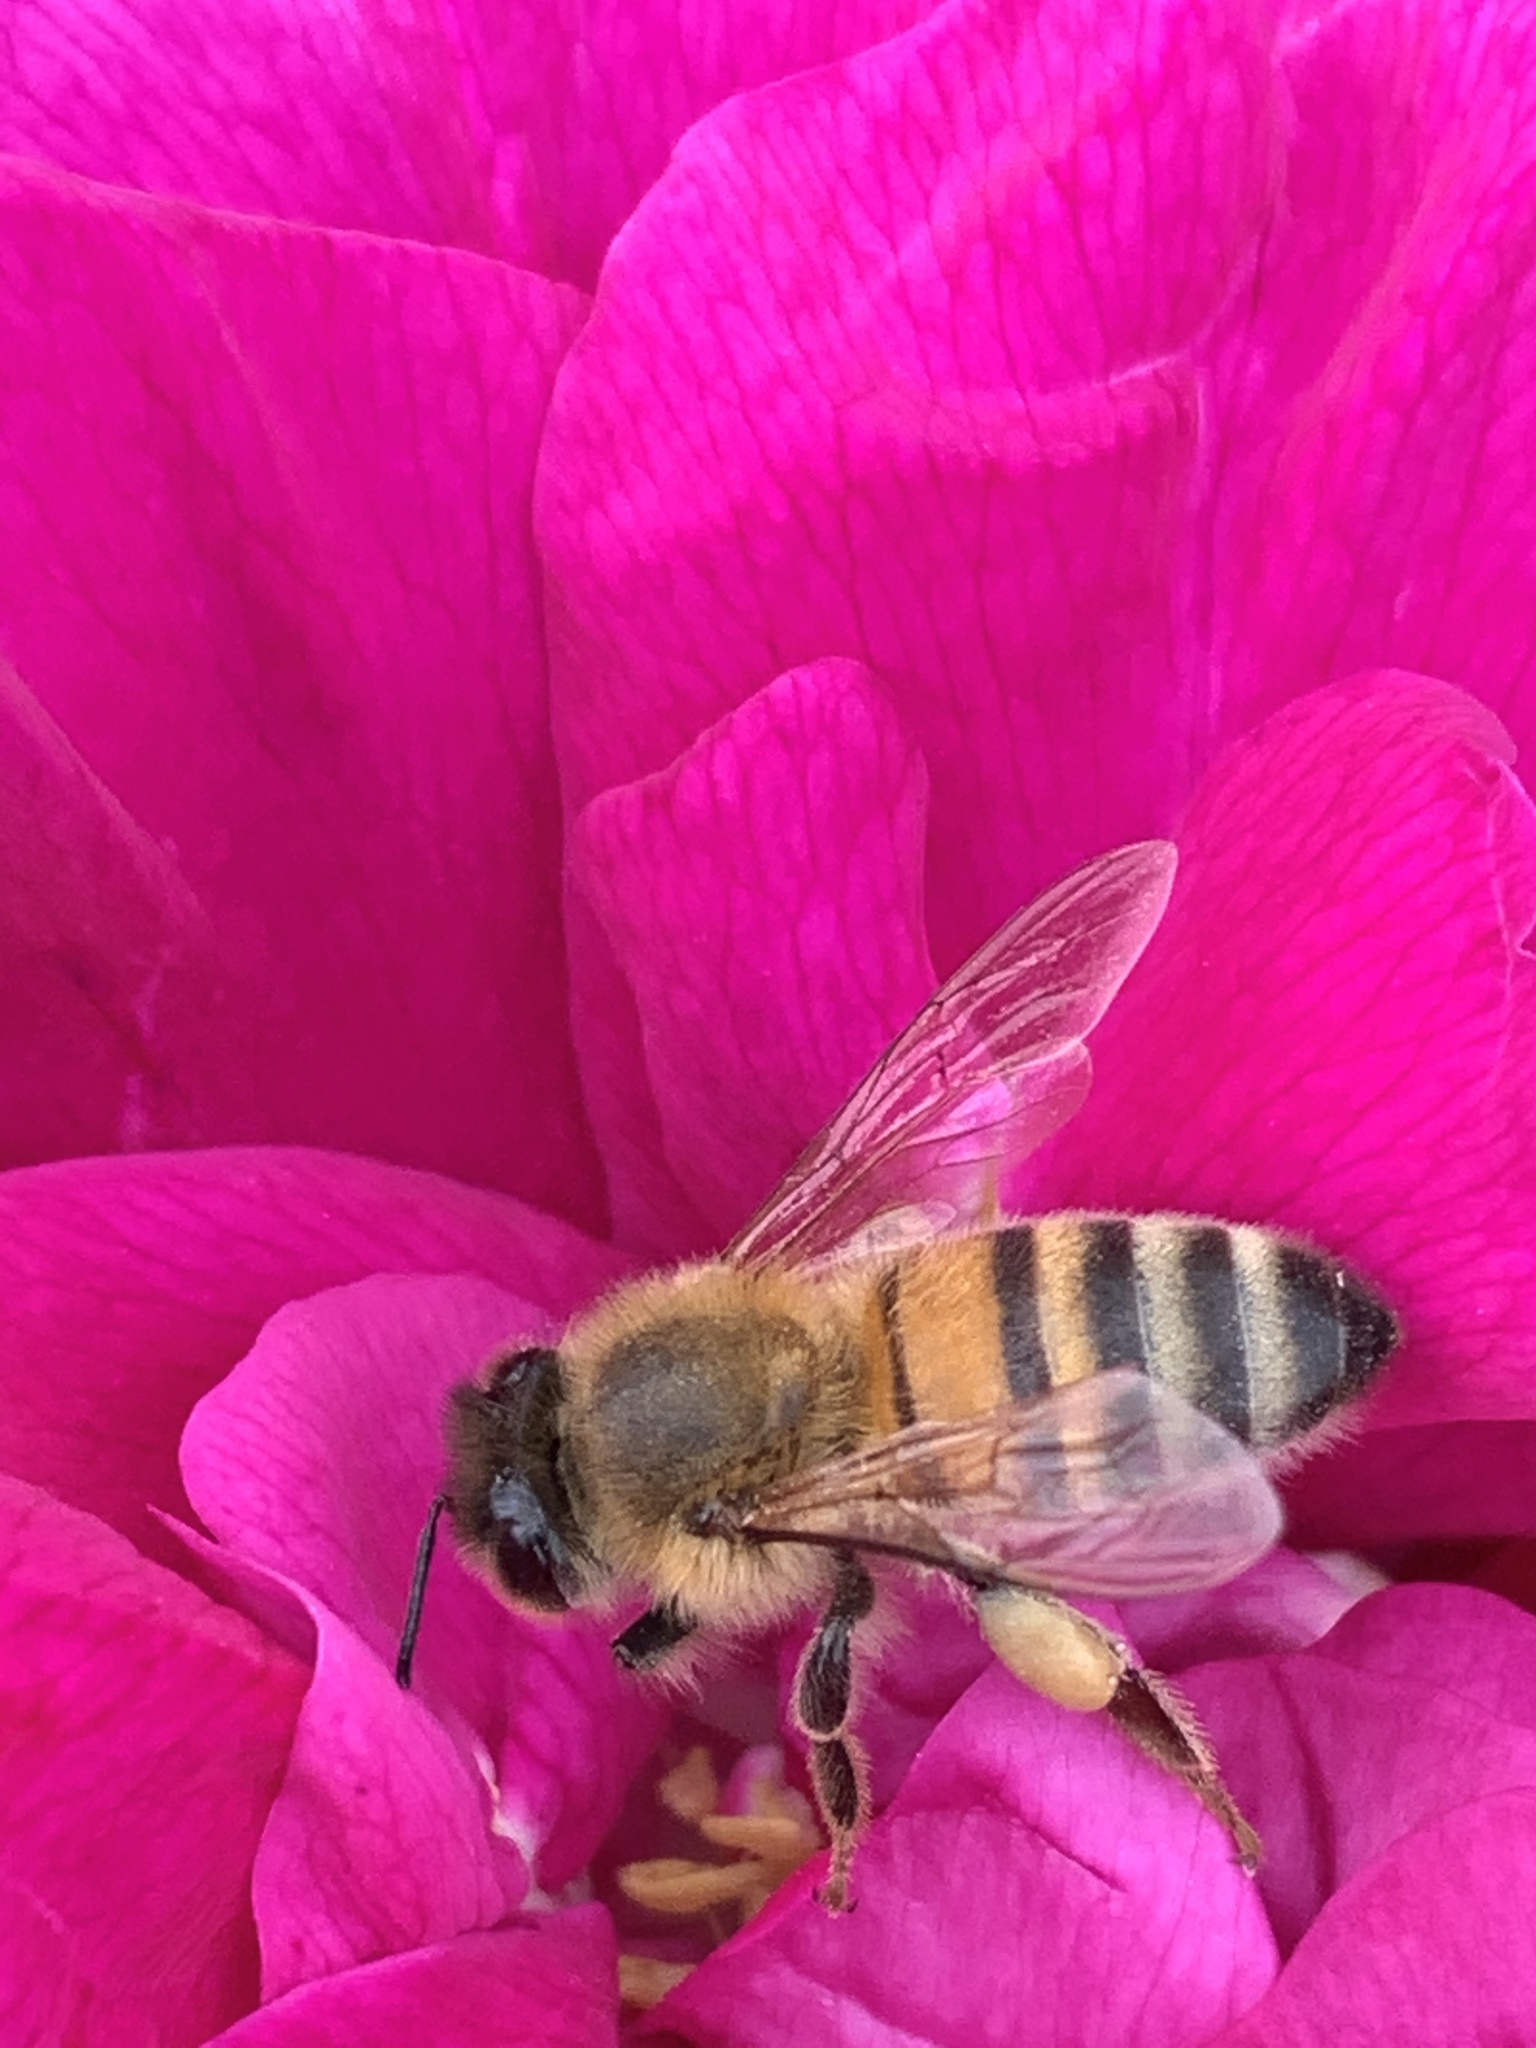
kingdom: Animalia
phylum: Arthropoda
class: Insecta
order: Hymenoptera
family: Apidae
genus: Apis
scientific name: Apis mellifera
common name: Honey bee
